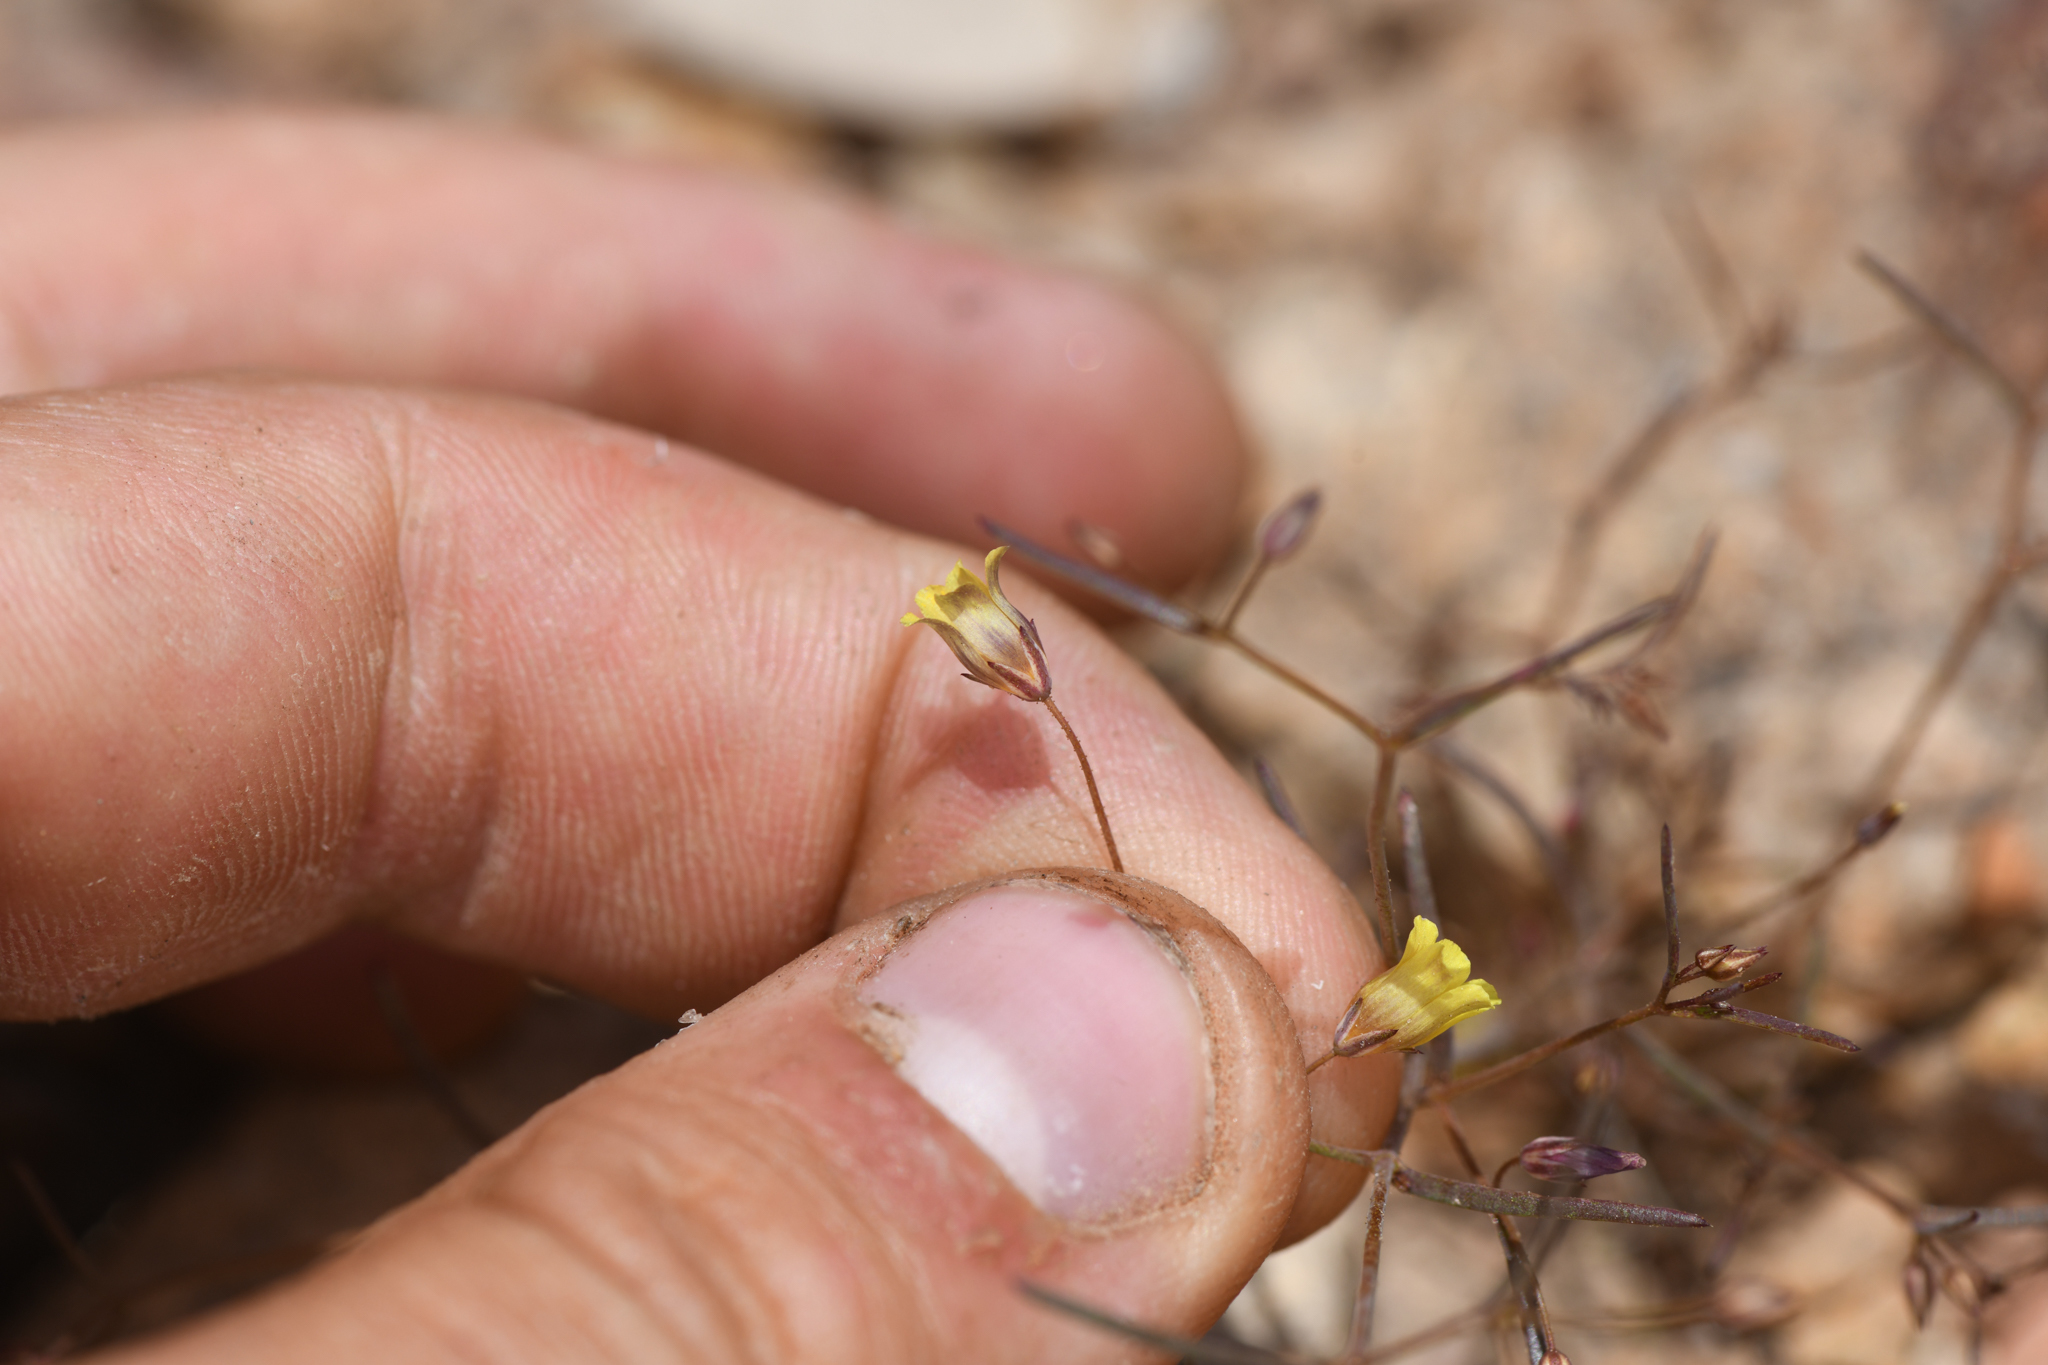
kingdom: Plantae
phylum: Tracheophyta
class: Magnoliopsida
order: Ericales
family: Polemoniaceae
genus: Linanthus
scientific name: Linanthus filiformis
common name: Yellow gilia
